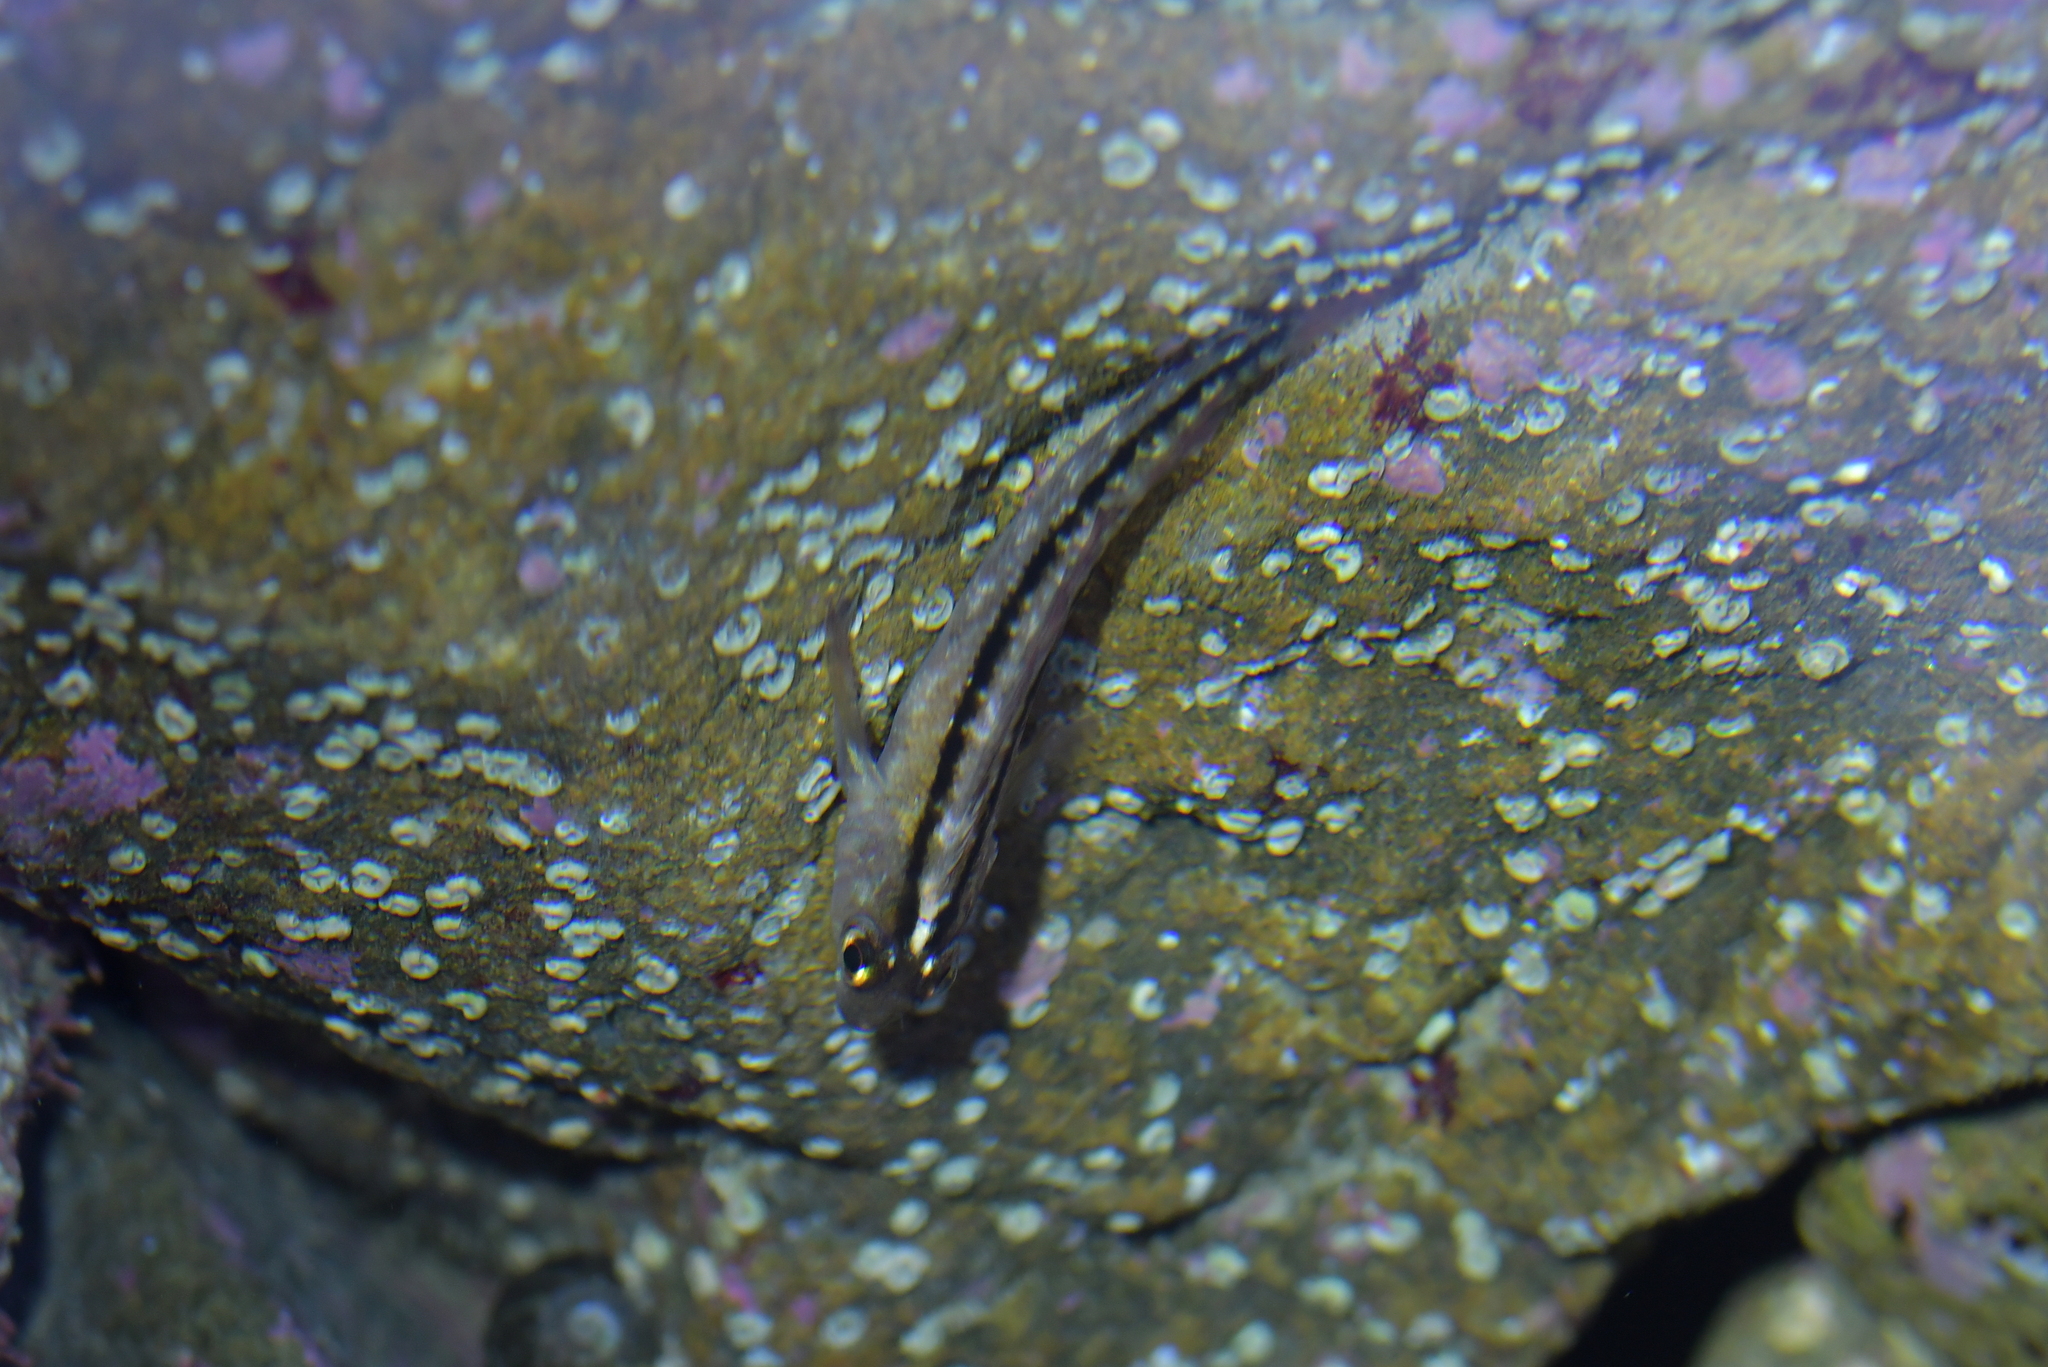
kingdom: Animalia
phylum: Chordata
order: Perciformes
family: Tripterygiidae
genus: Forsterygion
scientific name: Forsterygion lapillum
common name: Common triplefin
